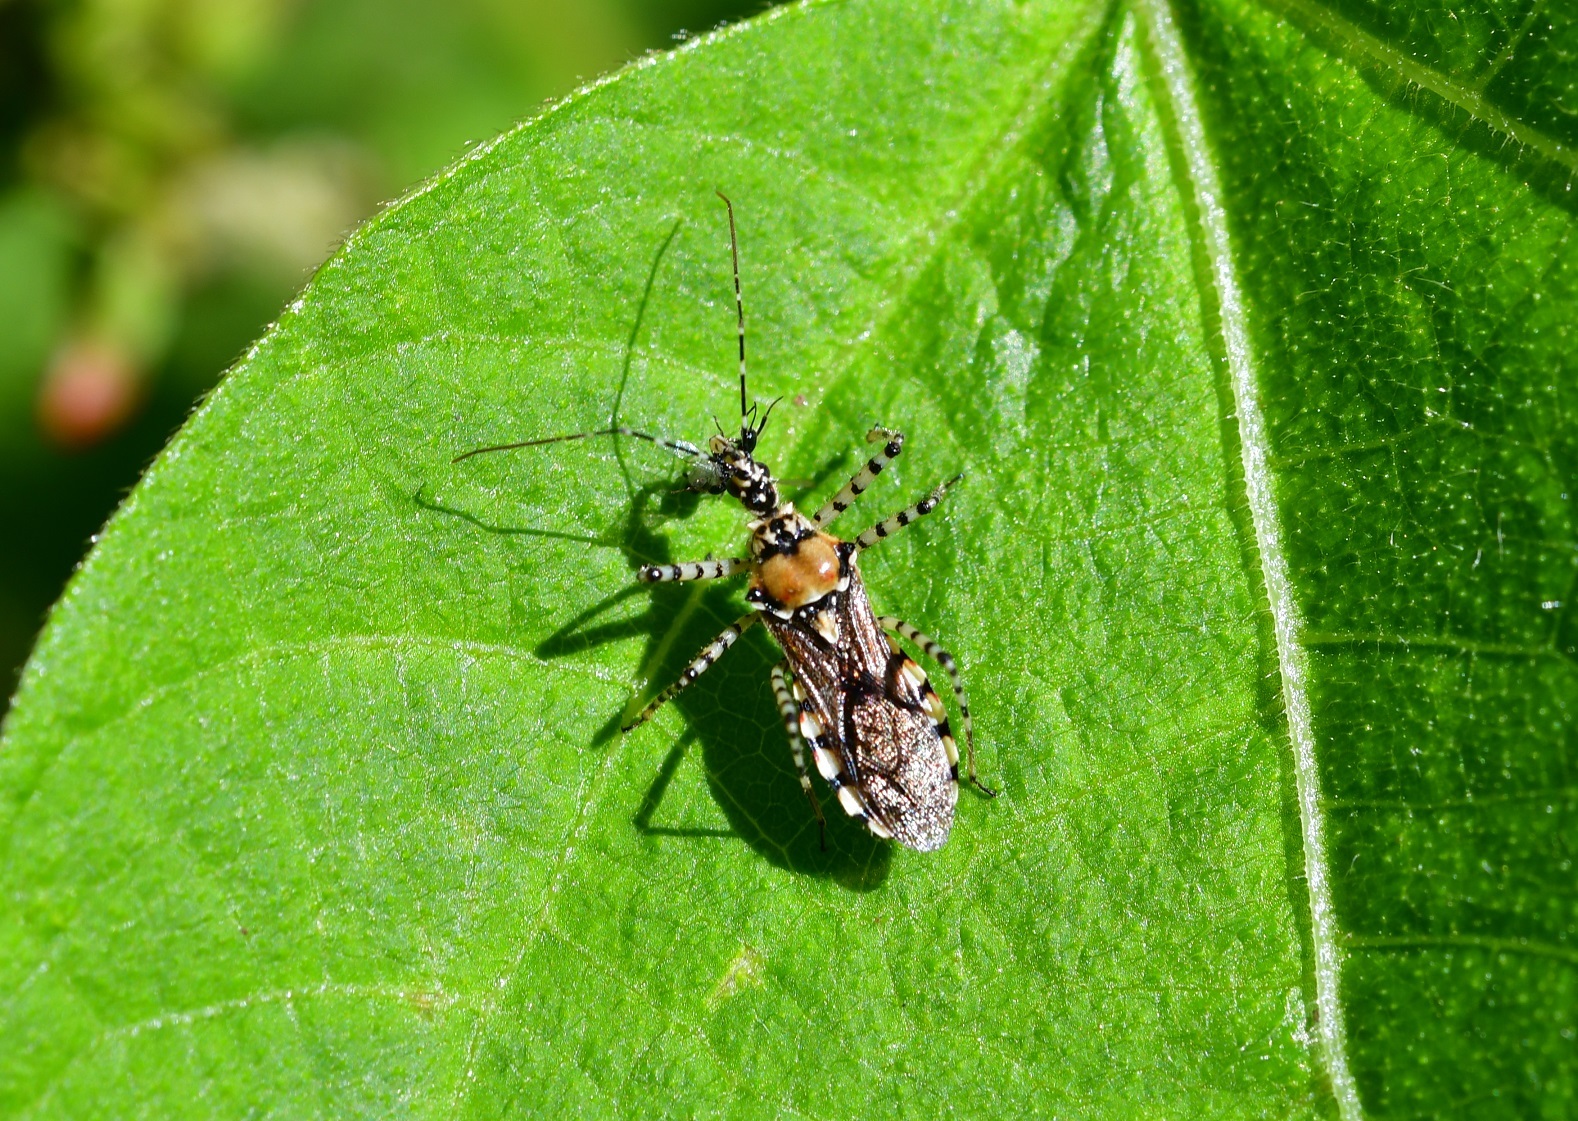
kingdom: Animalia
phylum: Arthropoda
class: Insecta
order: Hemiptera
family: Reduviidae
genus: Pselliopus
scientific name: Pselliopus zebra
